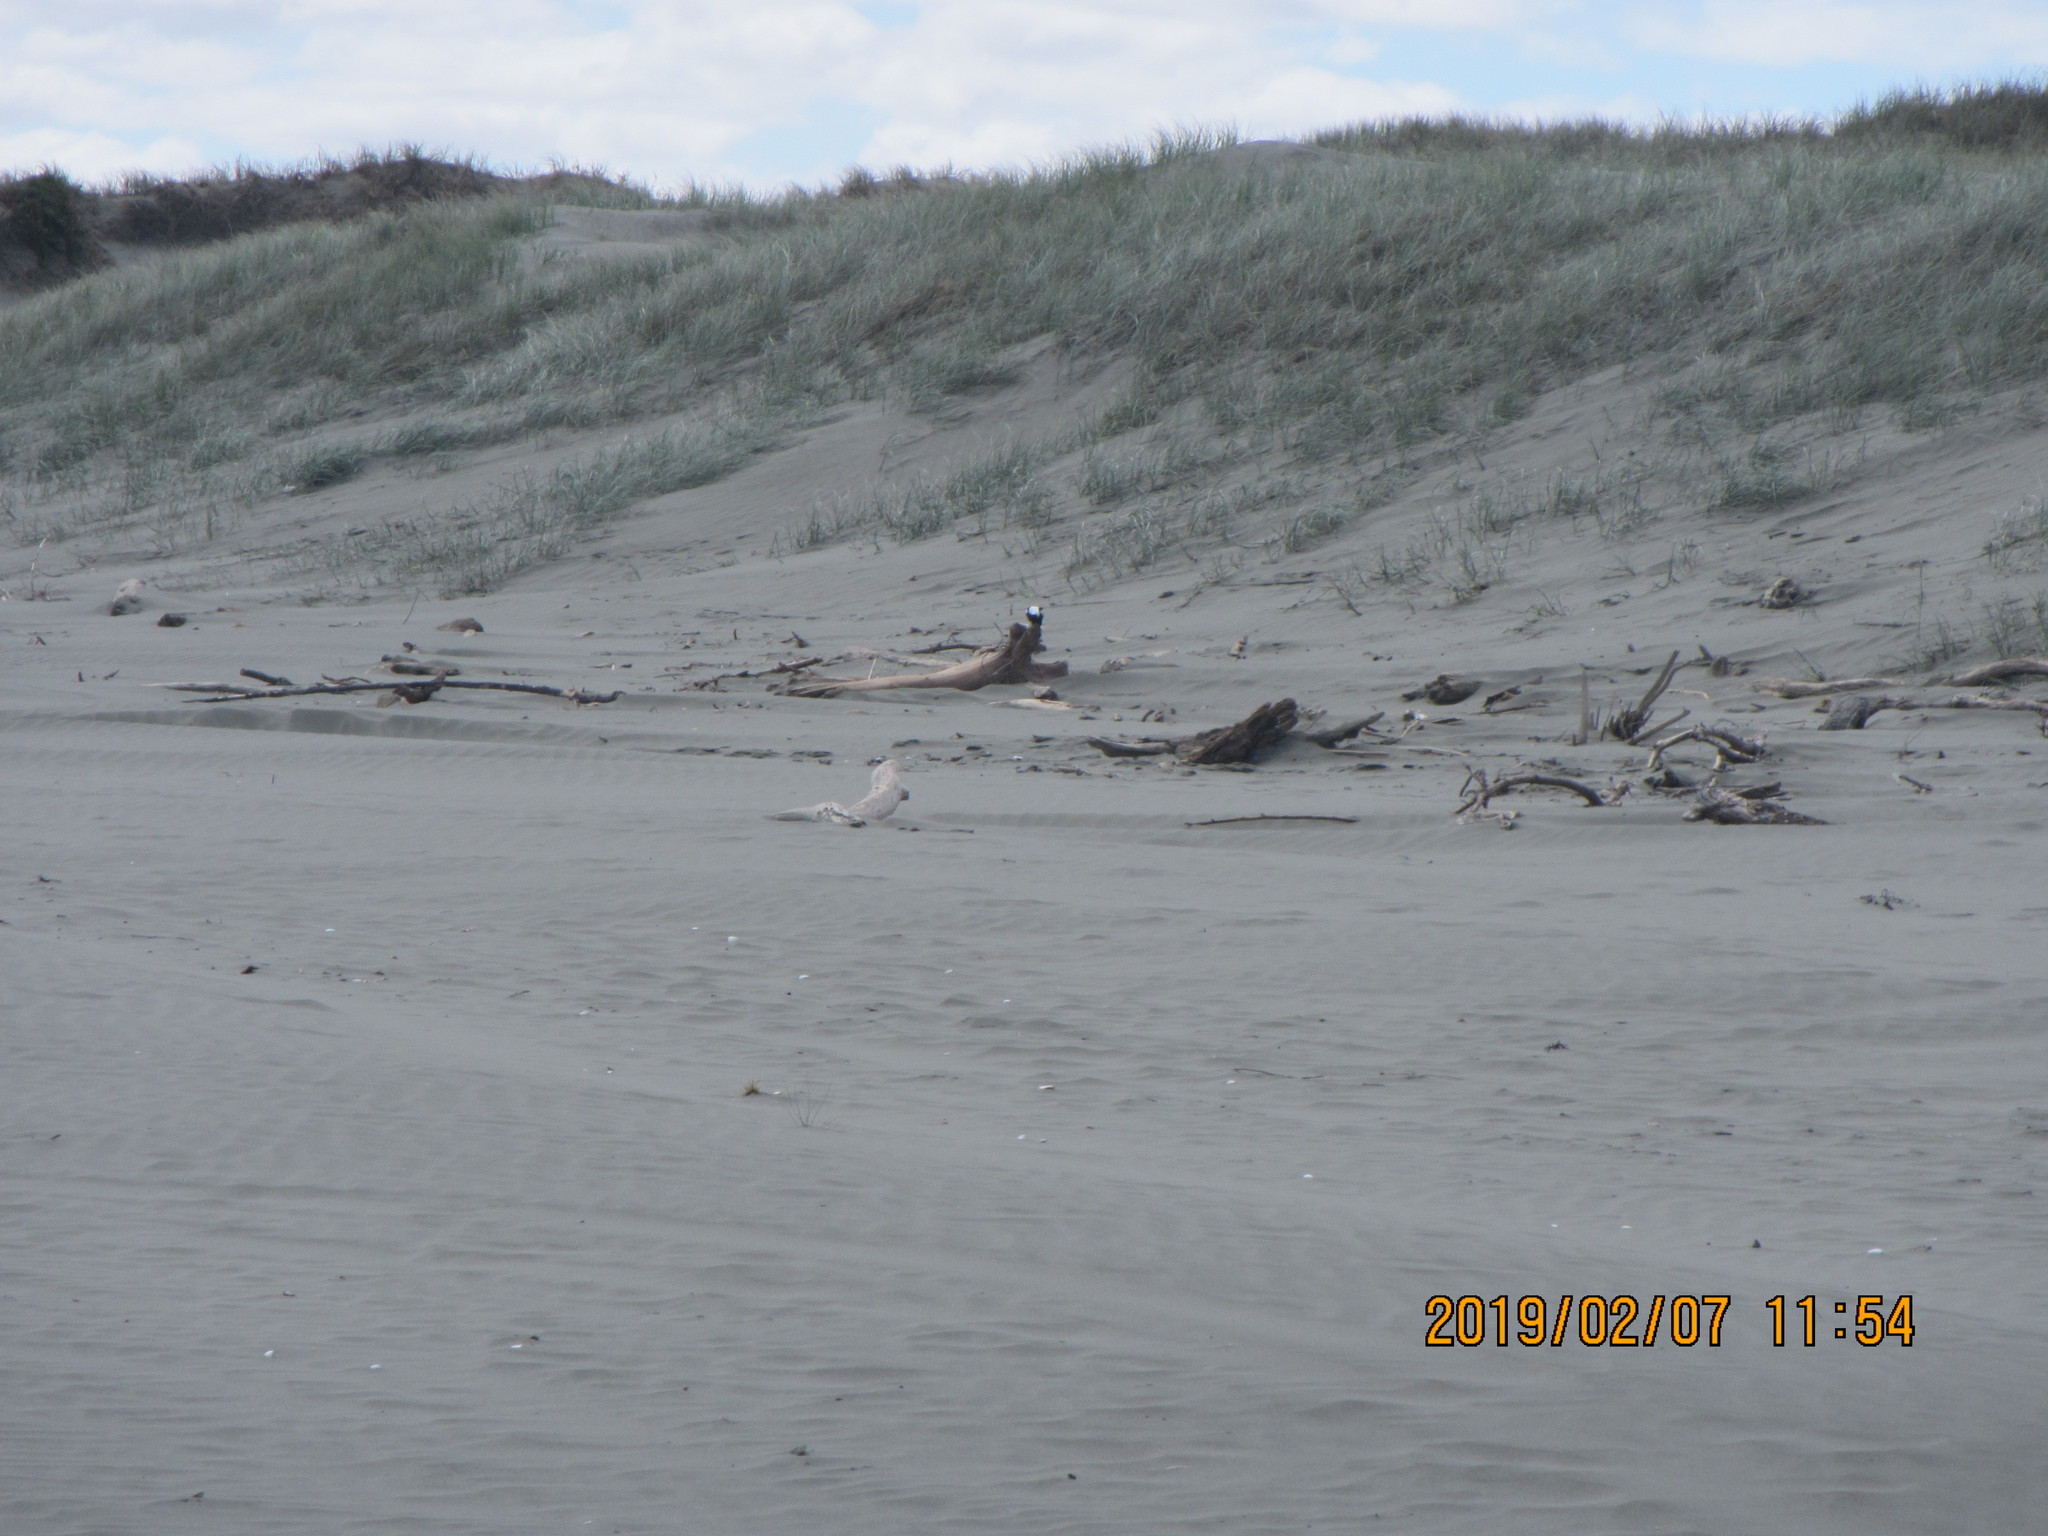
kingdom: Animalia
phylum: Chordata
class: Aves
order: Passeriformes
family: Cracticidae
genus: Gymnorhina
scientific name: Gymnorhina tibicen
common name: Australian magpie
